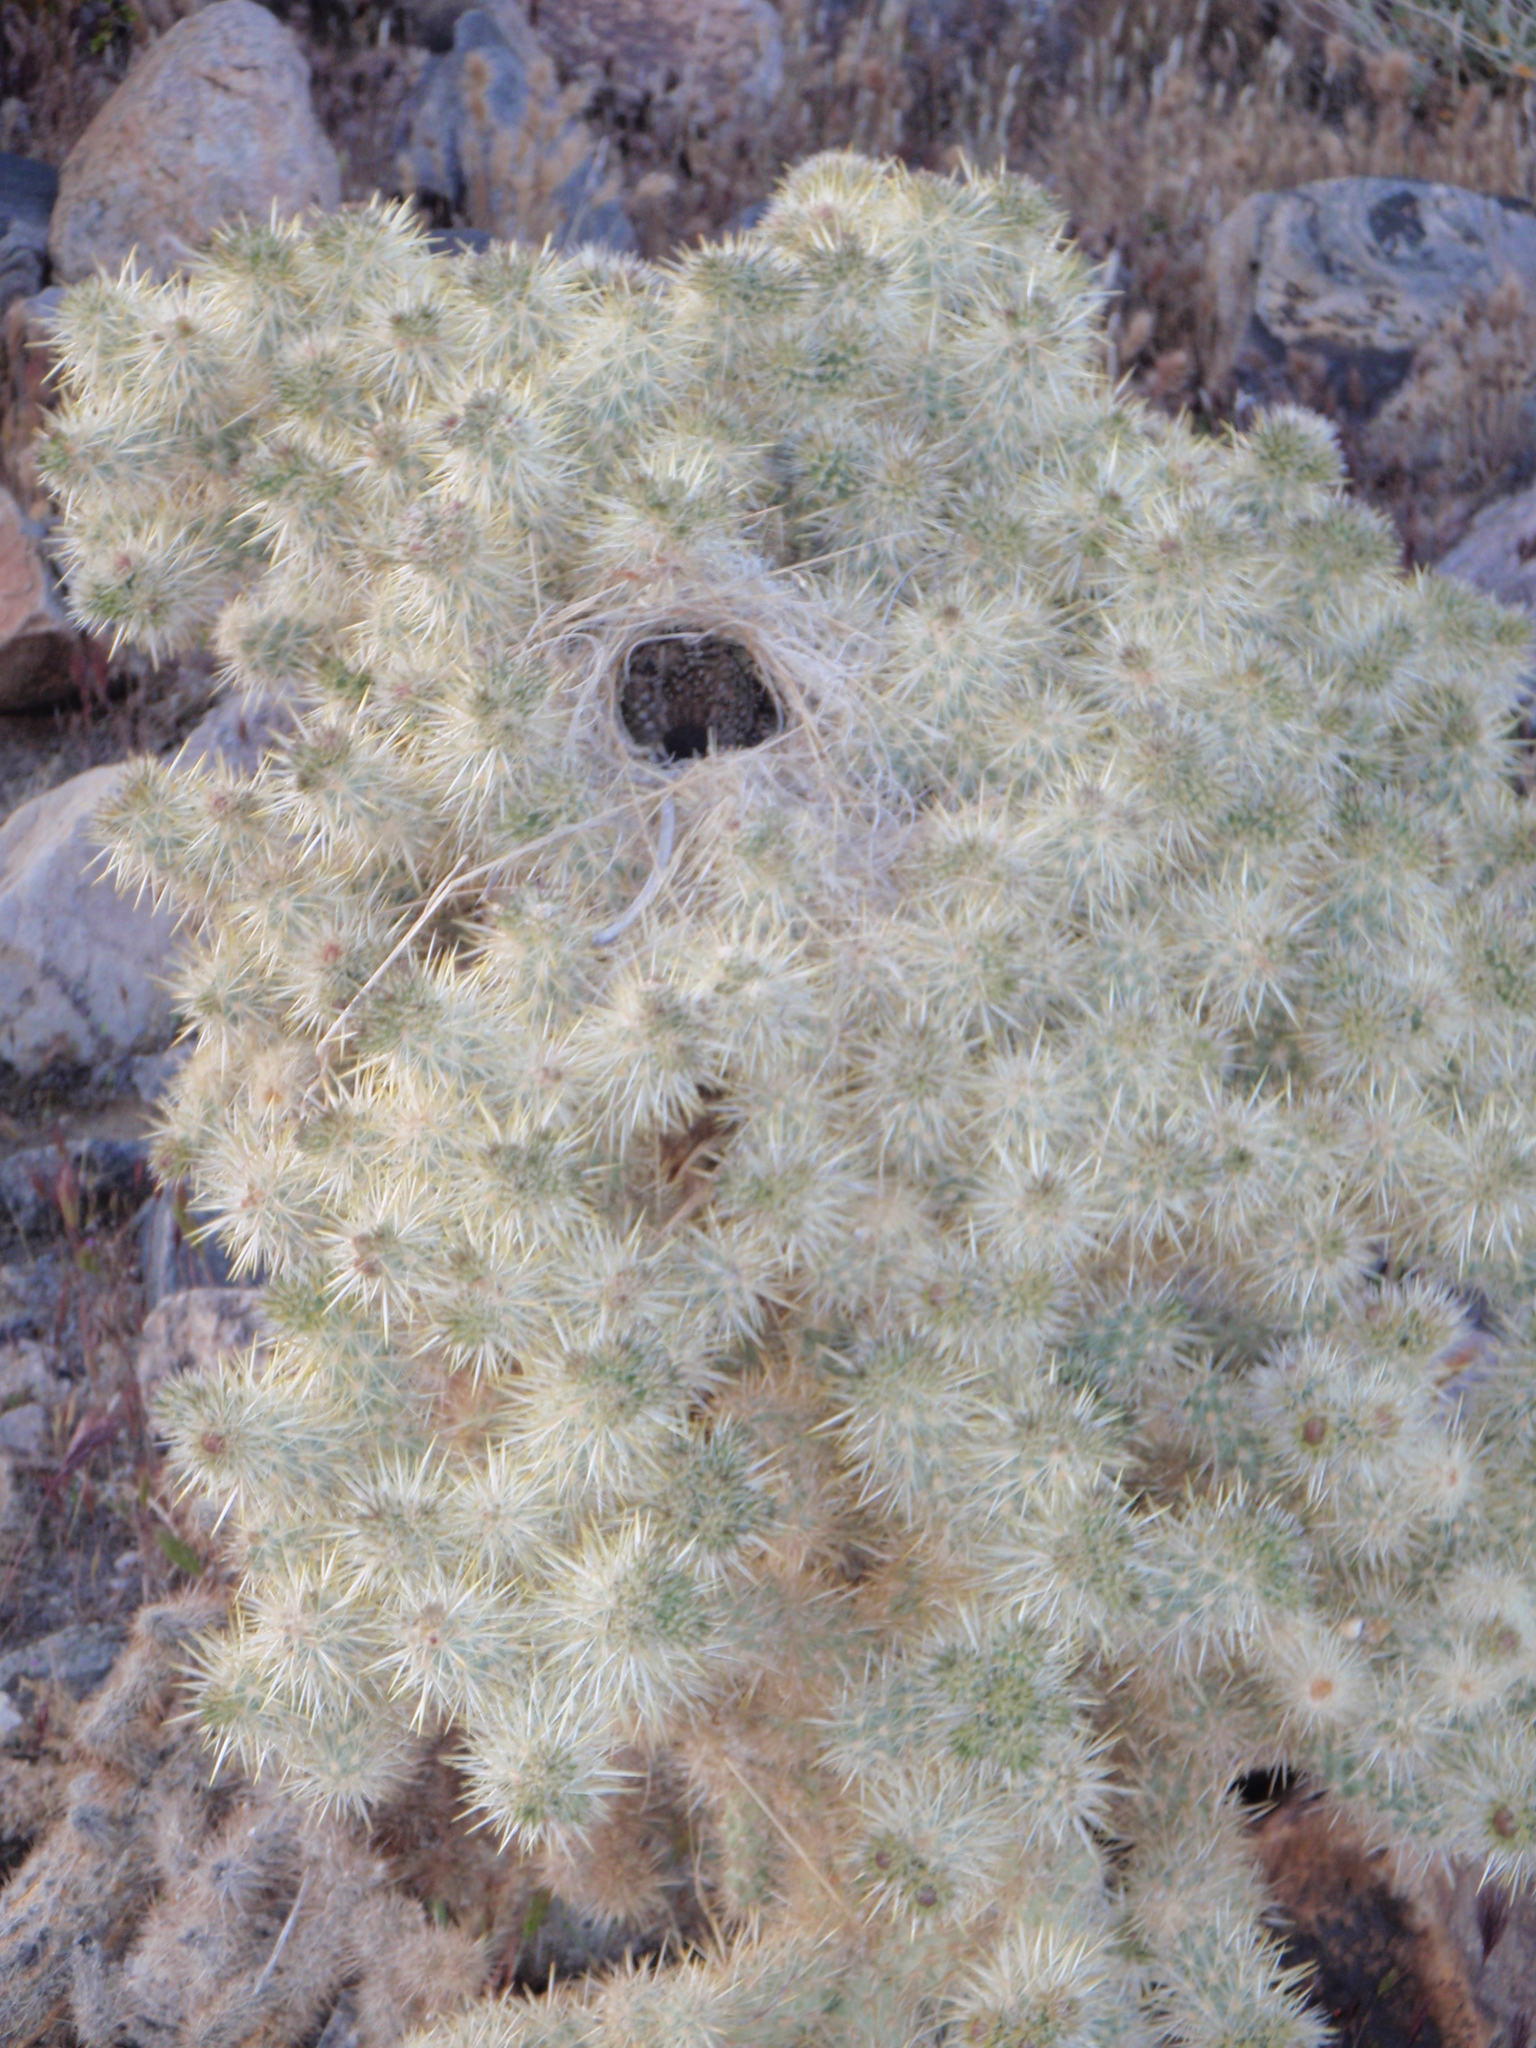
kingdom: Animalia
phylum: Chordata
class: Aves
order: Passeriformes
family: Troglodytidae
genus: Campylorhynchus
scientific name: Campylorhynchus brunneicapillus
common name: Cactus wren
